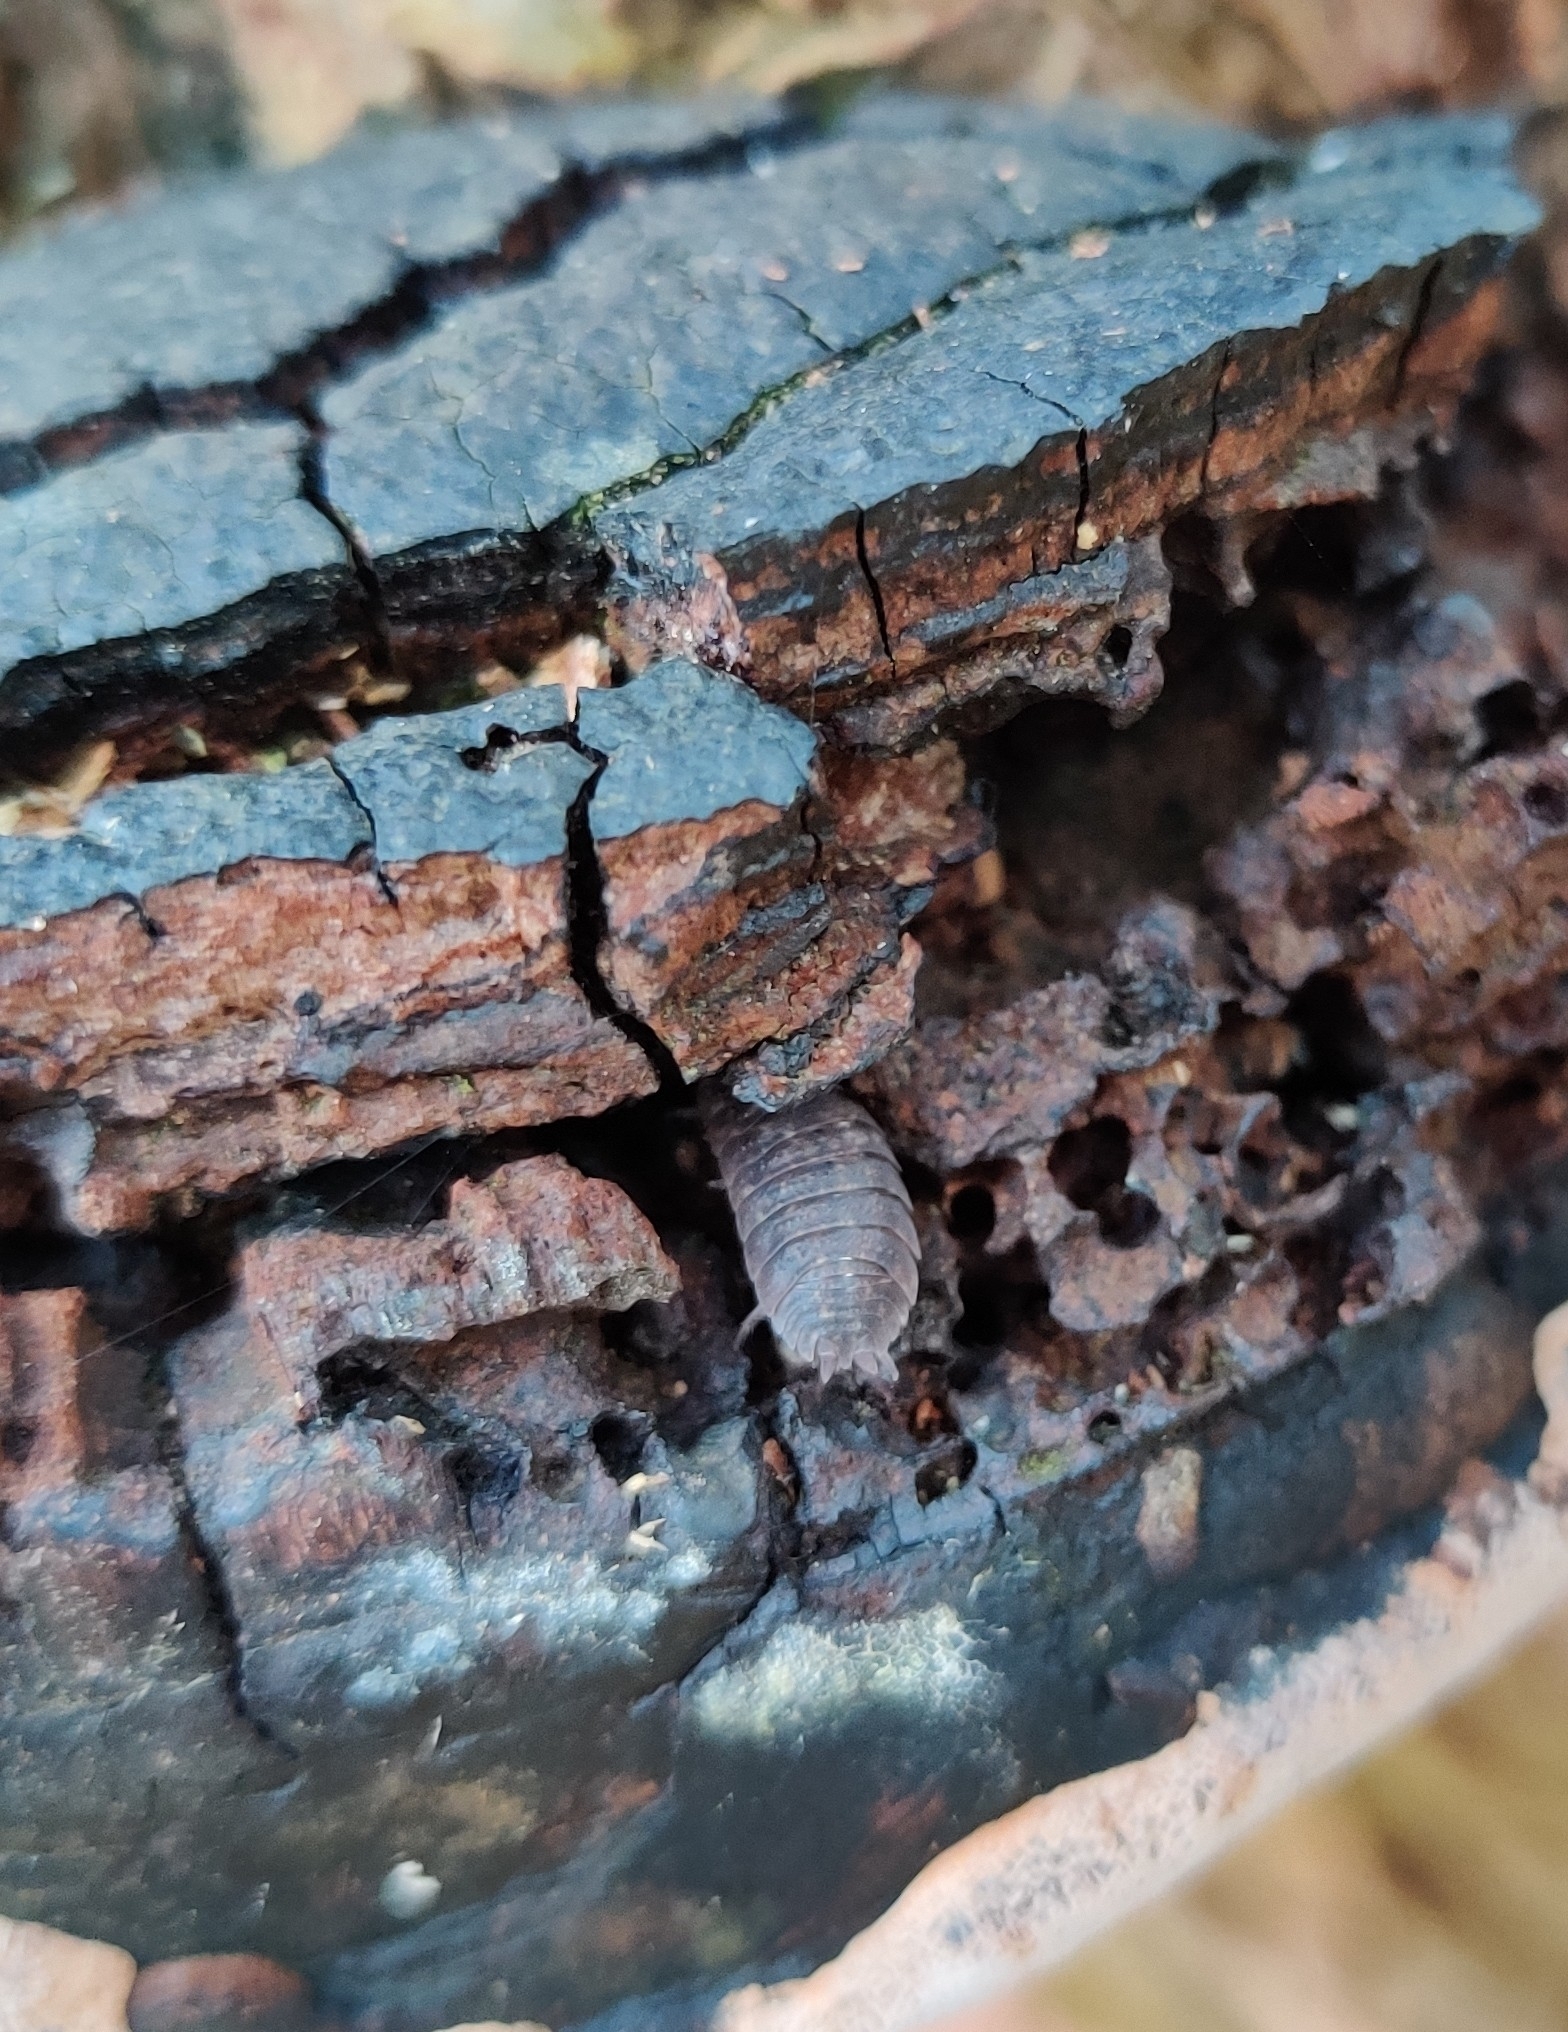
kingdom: Animalia
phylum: Arthropoda
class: Malacostraca
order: Isopoda
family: Porcellionidae
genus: Porcellio
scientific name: Porcellio scaber
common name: Common rough woodlouse
